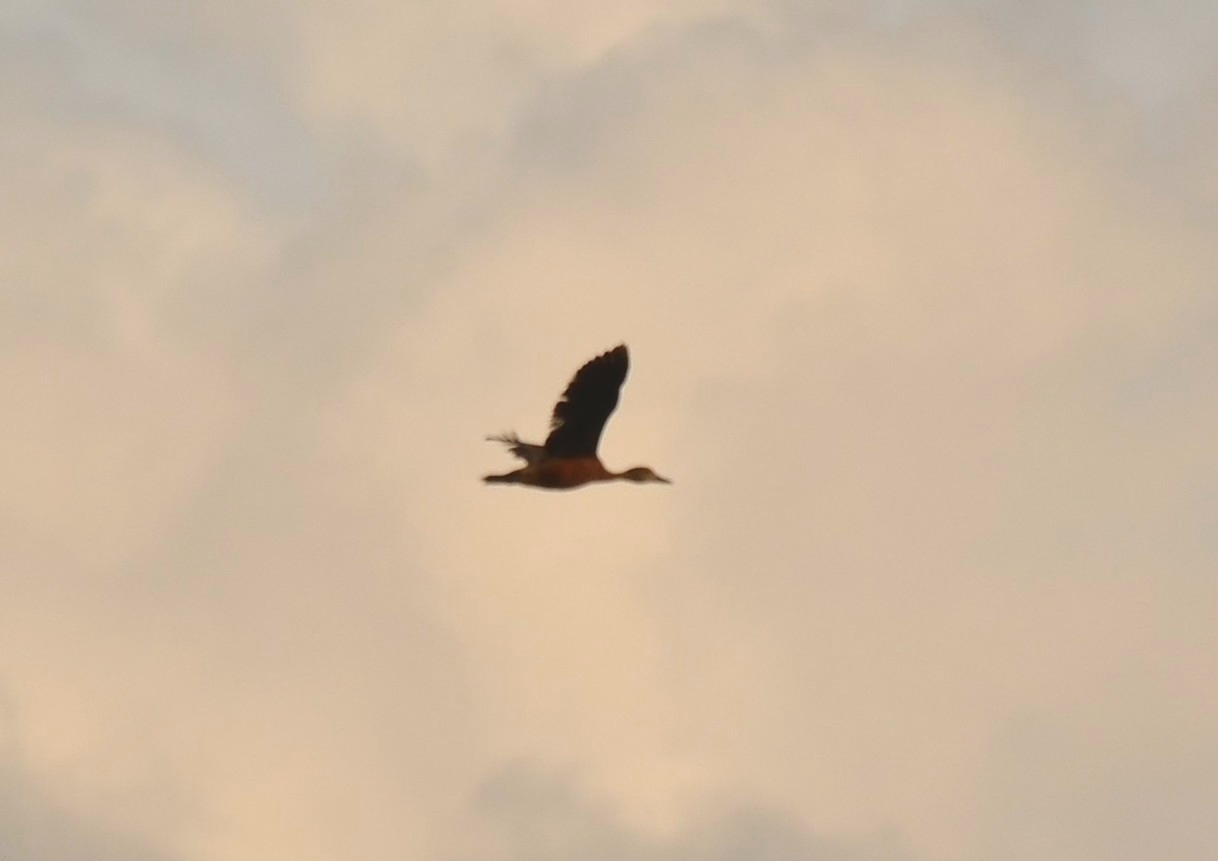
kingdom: Animalia
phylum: Chordata
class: Aves
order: Anseriformes
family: Anatidae
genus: Dendrocygna
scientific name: Dendrocygna javanica
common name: Lesser whistling-duck
